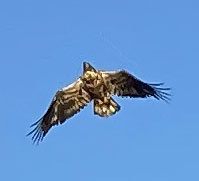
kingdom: Animalia
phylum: Chordata
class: Aves
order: Accipitriformes
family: Accipitridae
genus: Haliaeetus
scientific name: Haliaeetus leucocephalus
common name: Bald eagle
